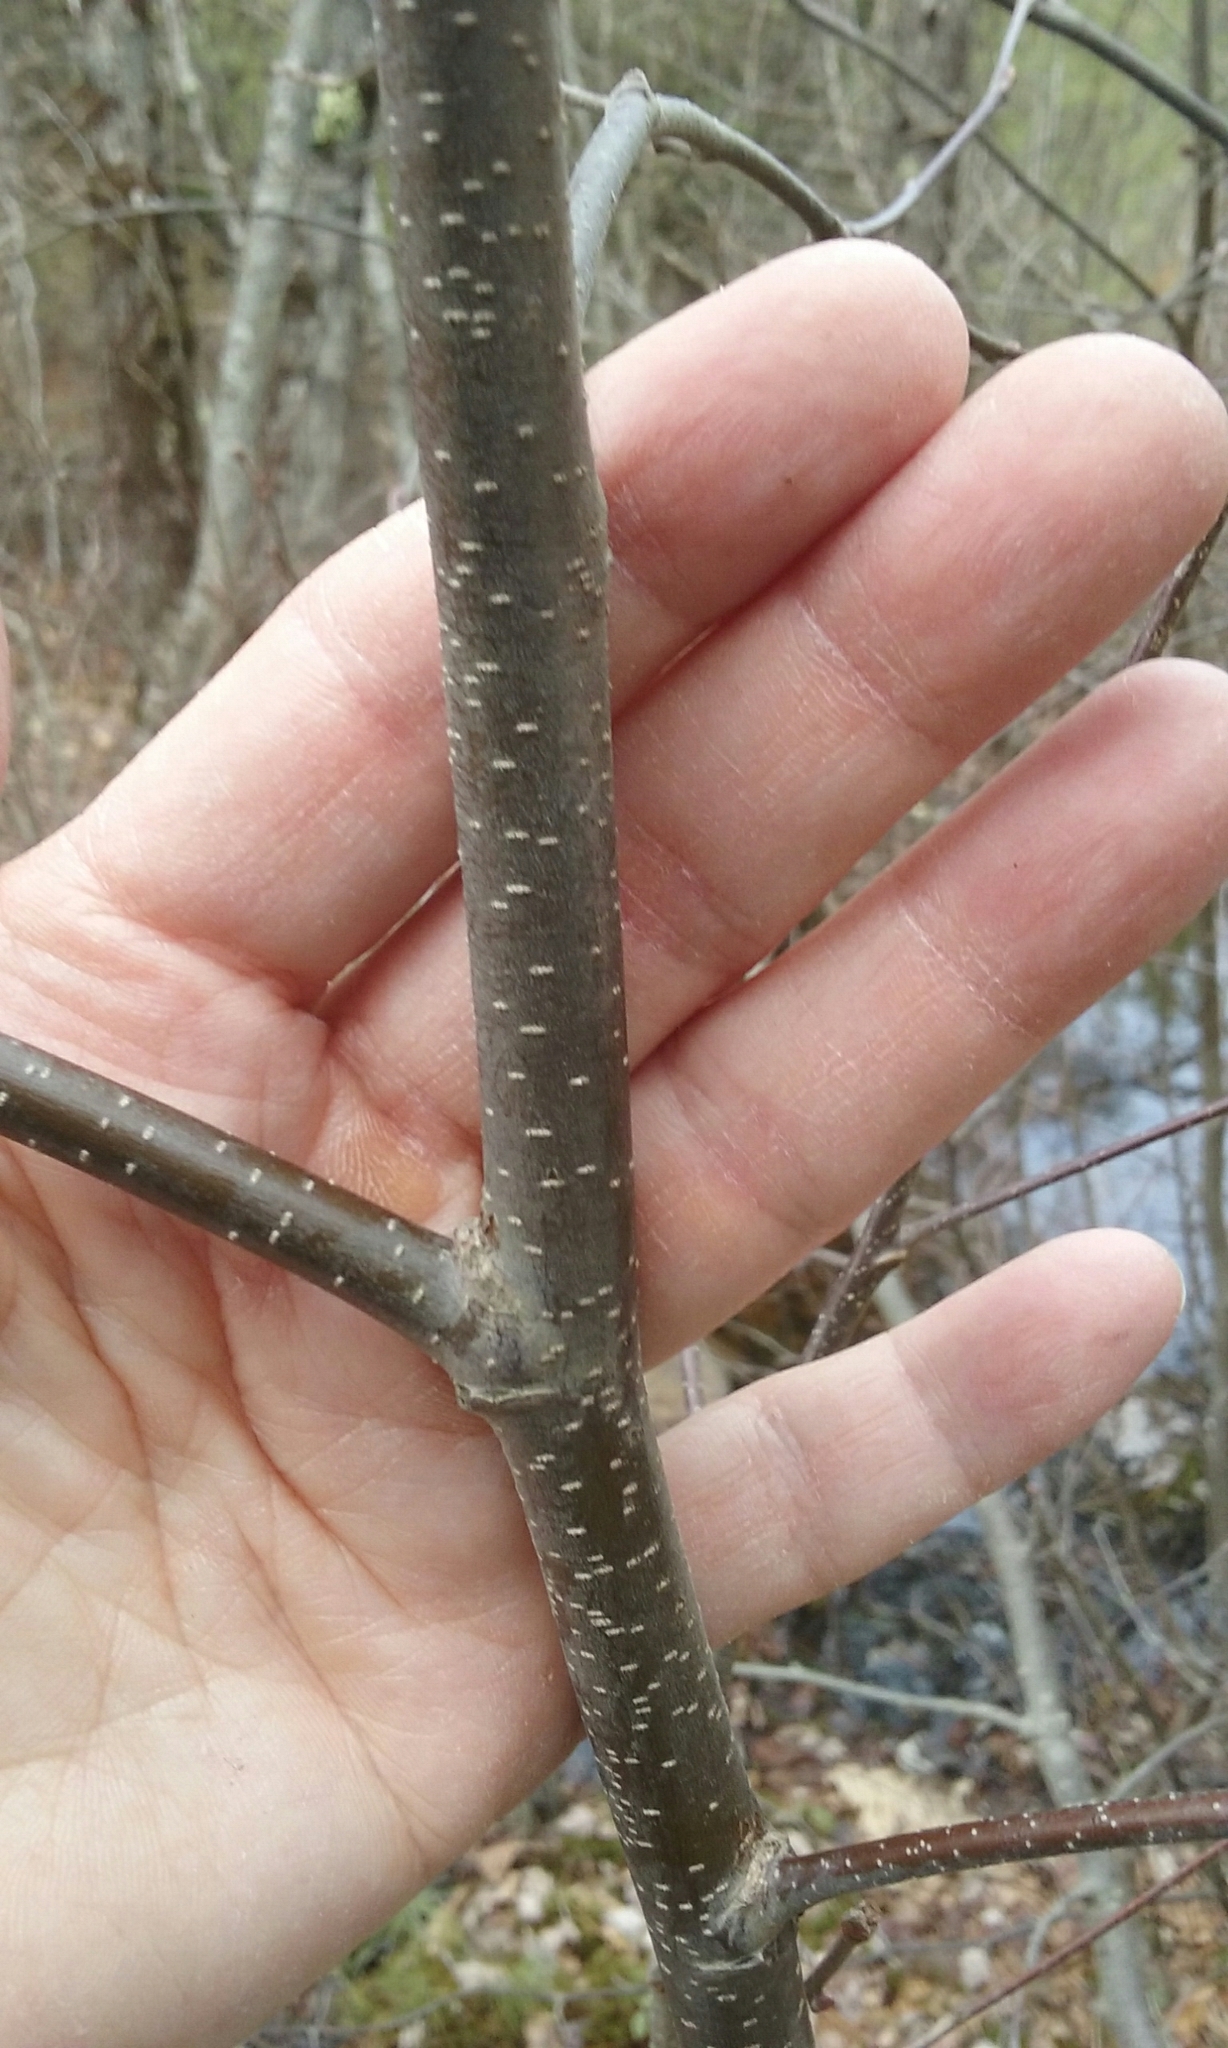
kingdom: Plantae
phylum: Tracheophyta
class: Magnoliopsida
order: Fagales
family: Betulaceae
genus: Alnus
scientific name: Alnus incana
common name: Grey alder
